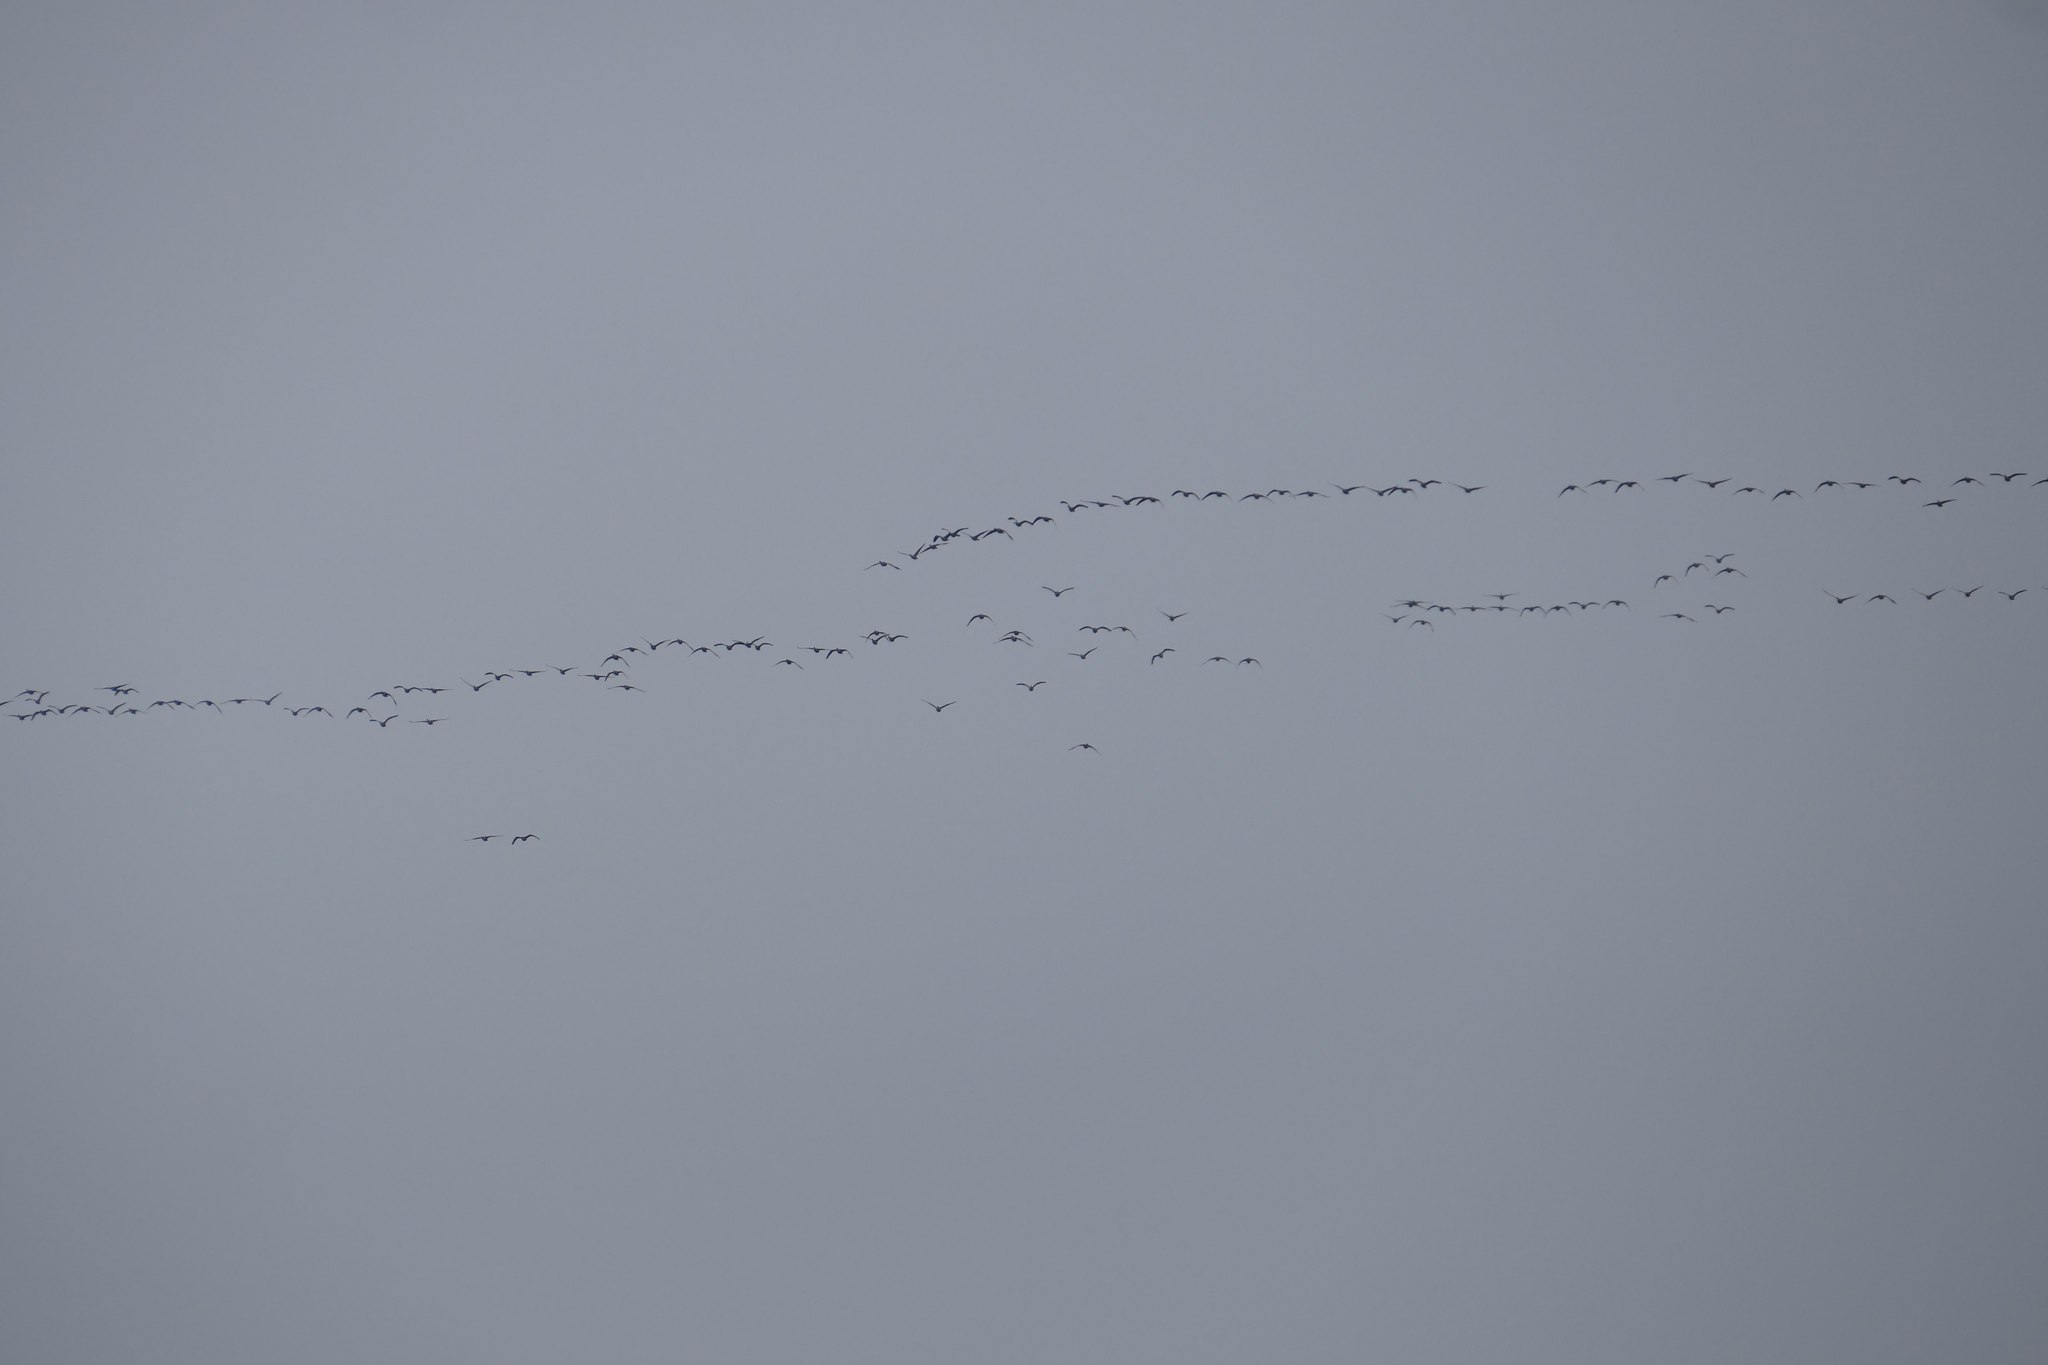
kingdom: Animalia
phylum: Chordata
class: Aves
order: Anseriformes
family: Anatidae
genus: Branta
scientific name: Branta canadensis
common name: Canada goose
